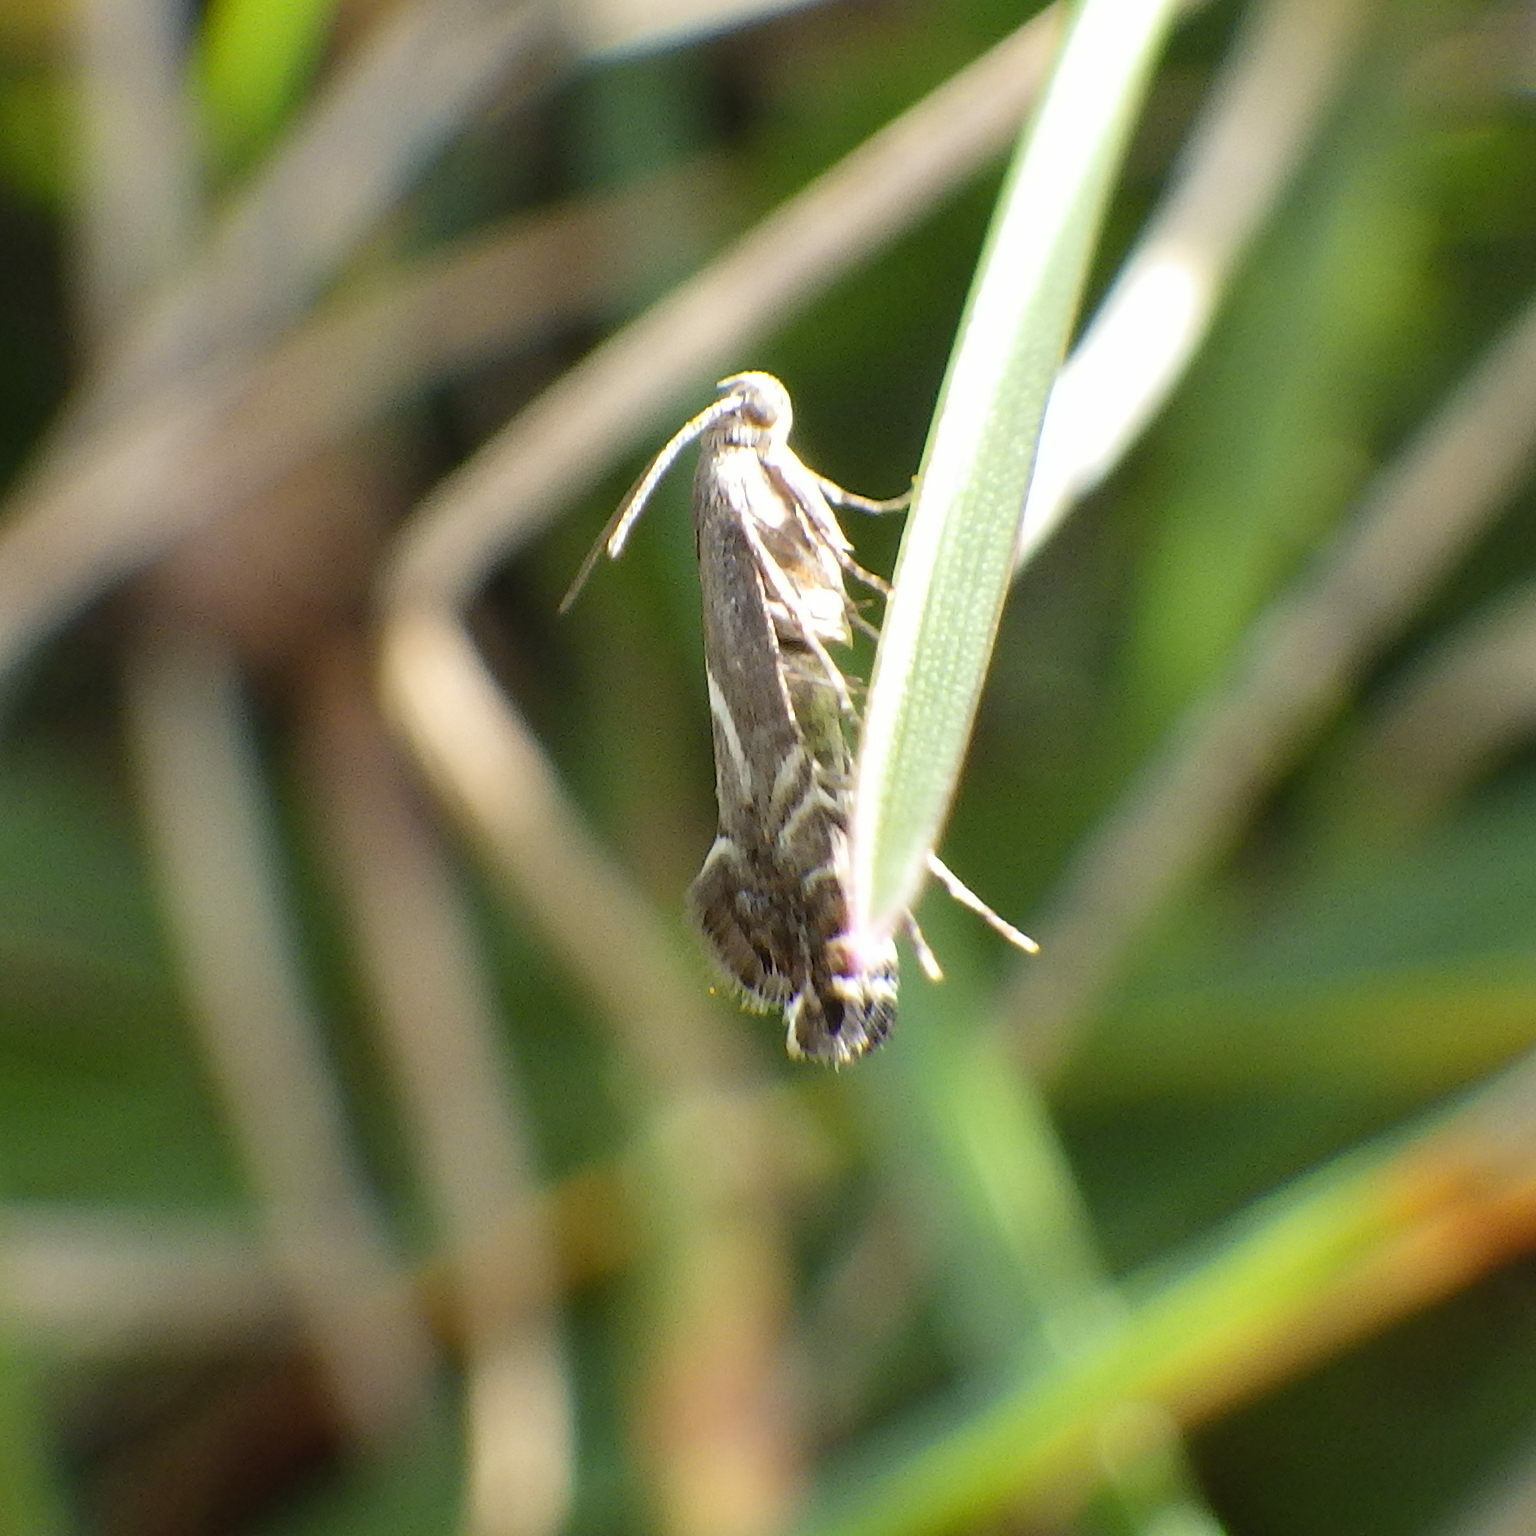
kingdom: Animalia
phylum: Arthropoda
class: Insecta
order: Lepidoptera
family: Glyphipterigidae
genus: Glyphipterix
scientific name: Glyphipterix Diploschizia impigritella
